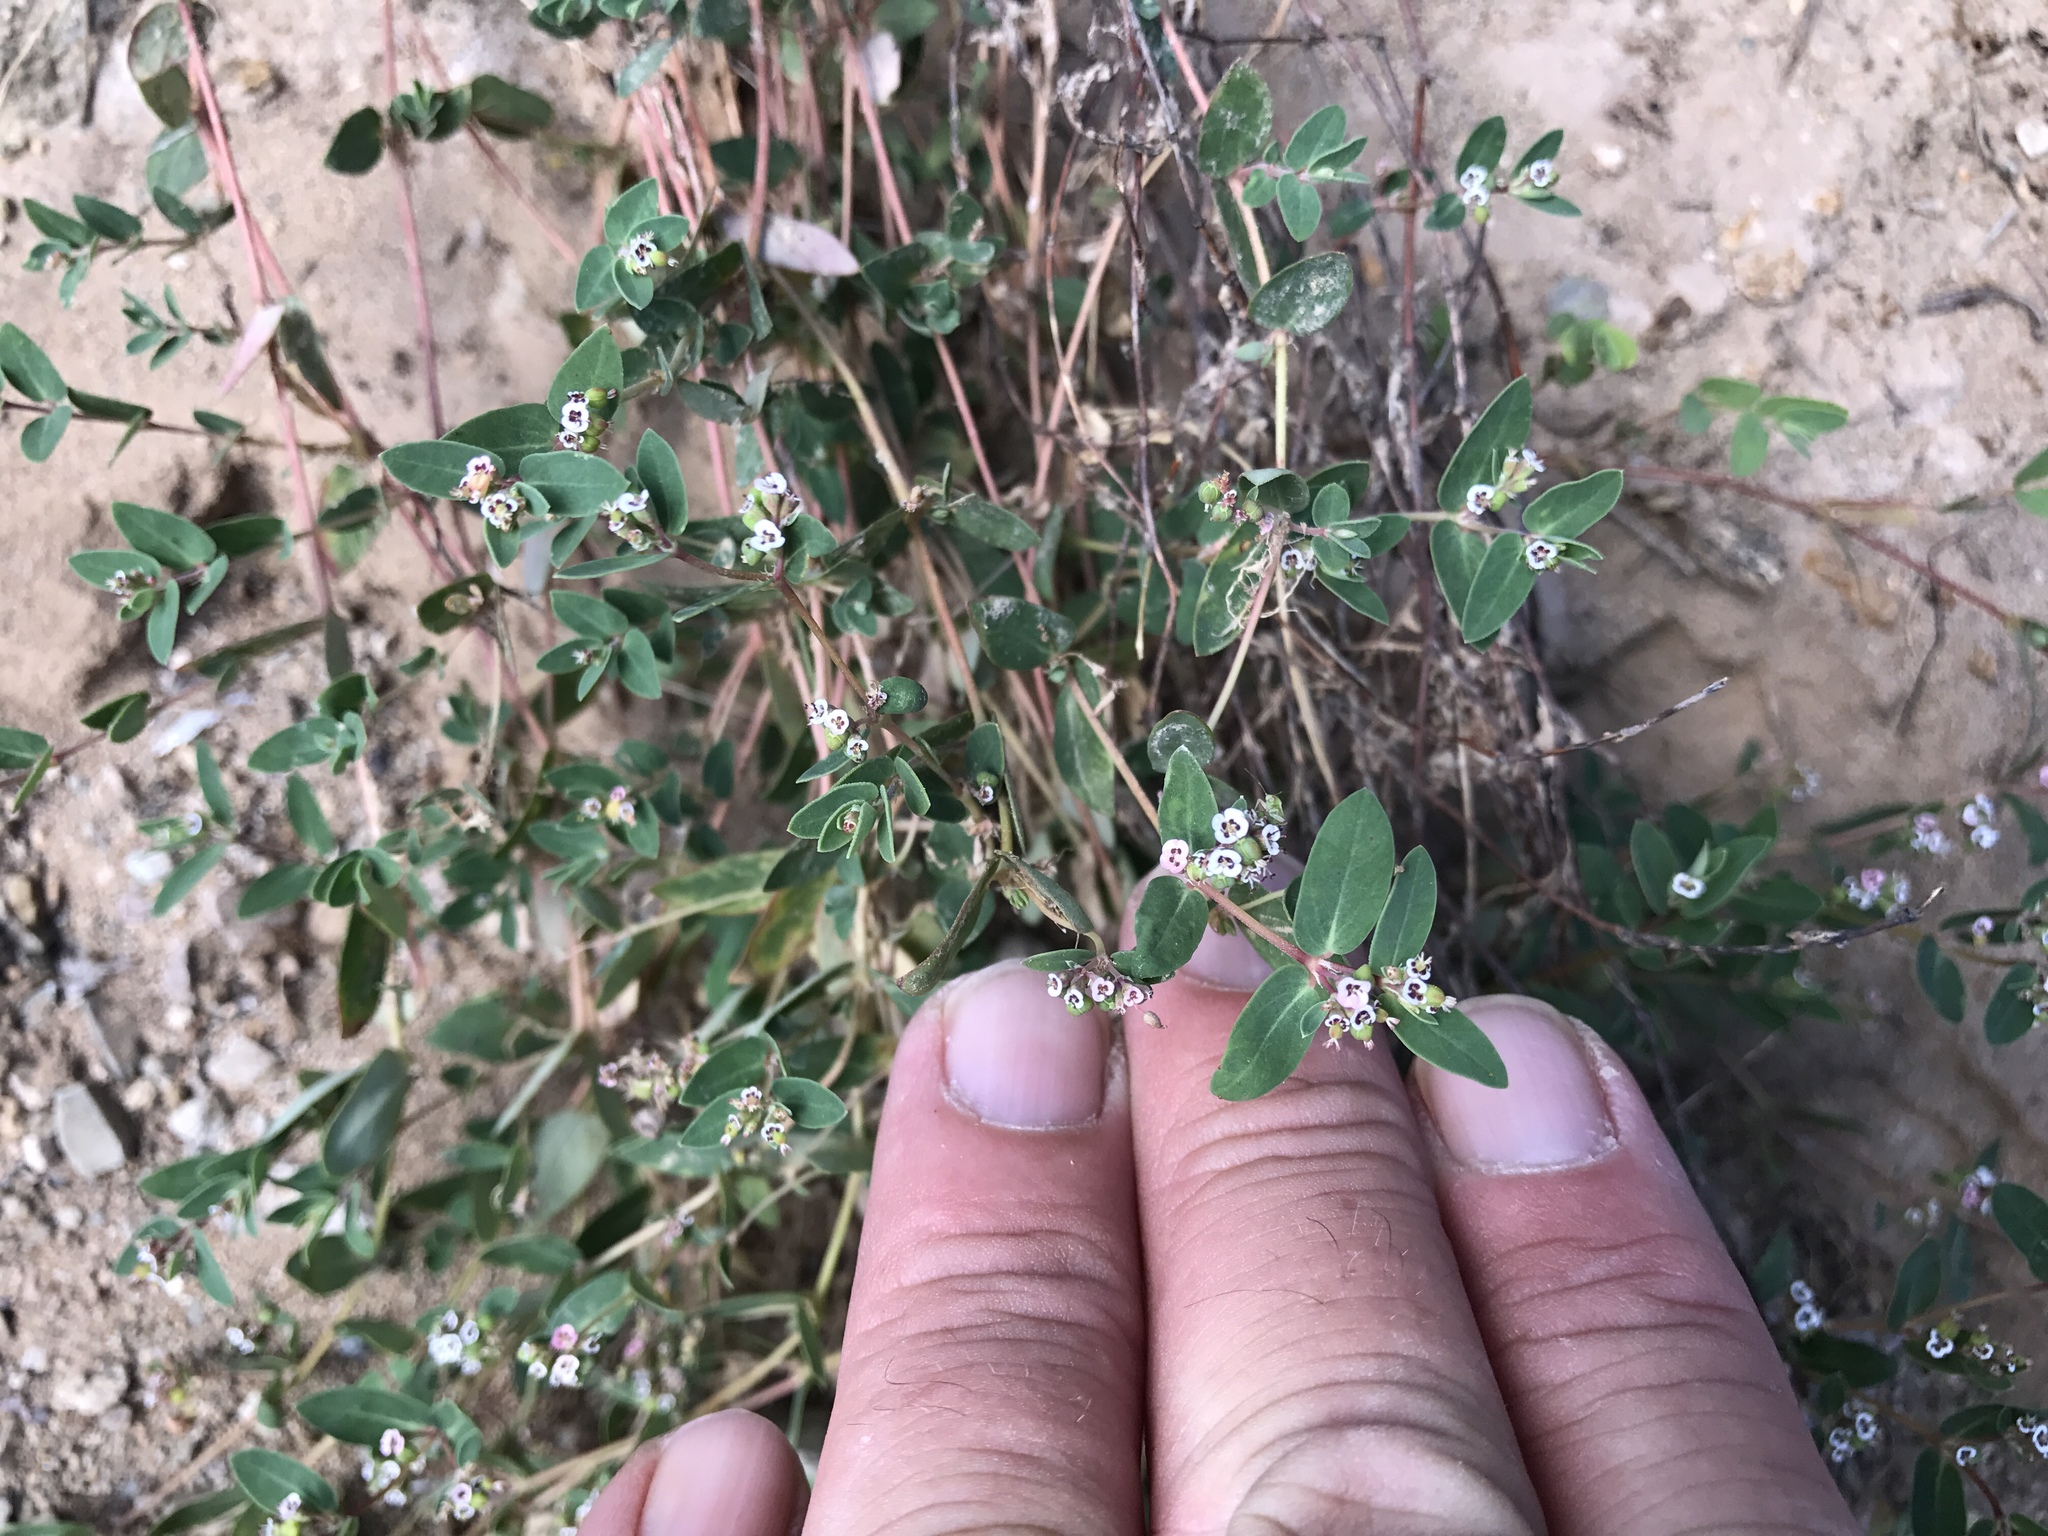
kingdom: Plantae
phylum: Tracheophyta
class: Magnoliopsida
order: Malpighiales
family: Euphorbiaceae
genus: Euphorbia
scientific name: Euphorbia capitellata
